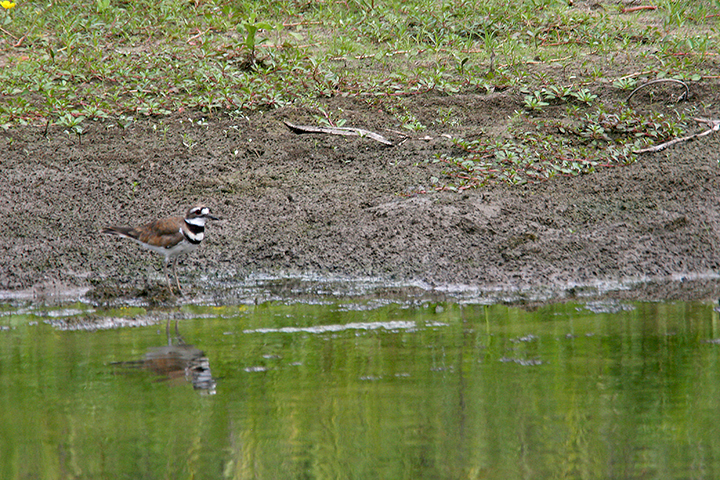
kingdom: Animalia
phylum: Chordata
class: Aves
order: Charadriiformes
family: Charadriidae
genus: Charadrius
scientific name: Charadrius vociferus
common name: Killdeer
